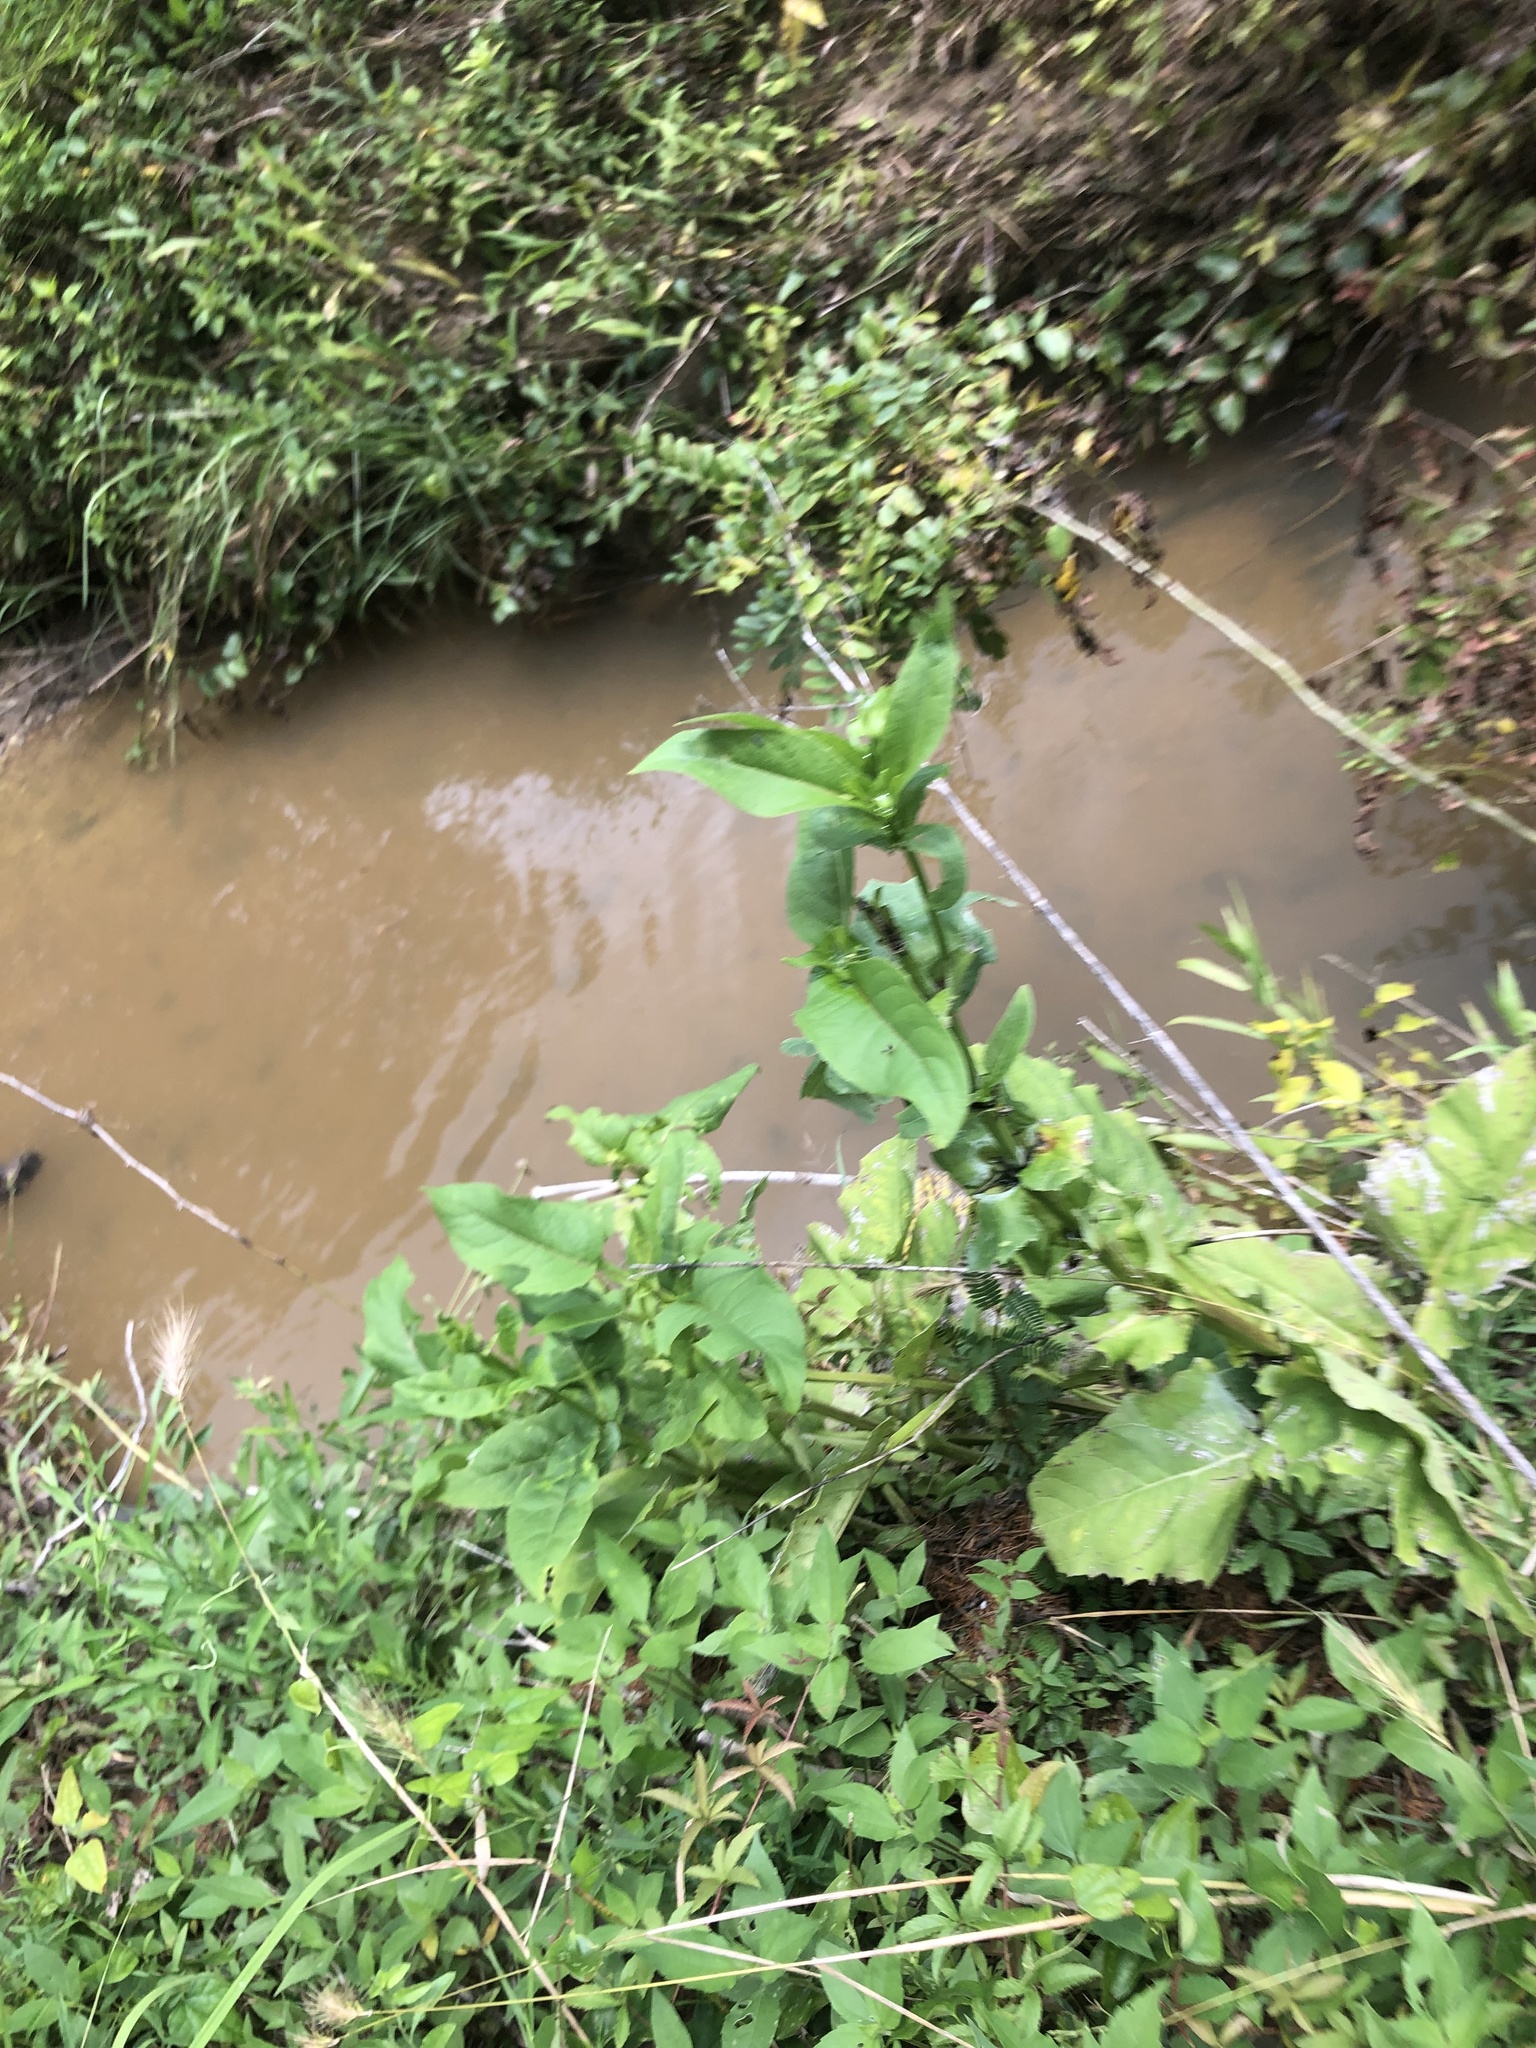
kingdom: Plantae
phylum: Tracheophyta
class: Magnoliopsida
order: Asterales
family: Asteraceae
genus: Silphium
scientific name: Silphium perfoliatum
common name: Cup-plant
